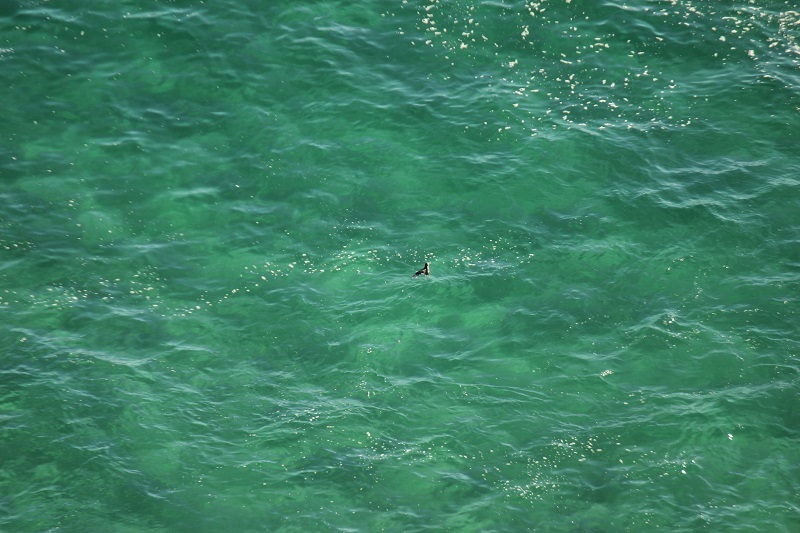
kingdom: Animalia
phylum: Chordata
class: Aves
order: Sphenisciformes
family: Spheniscidae
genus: Spheniscus
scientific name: Spheniscus demersus
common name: African penguin
